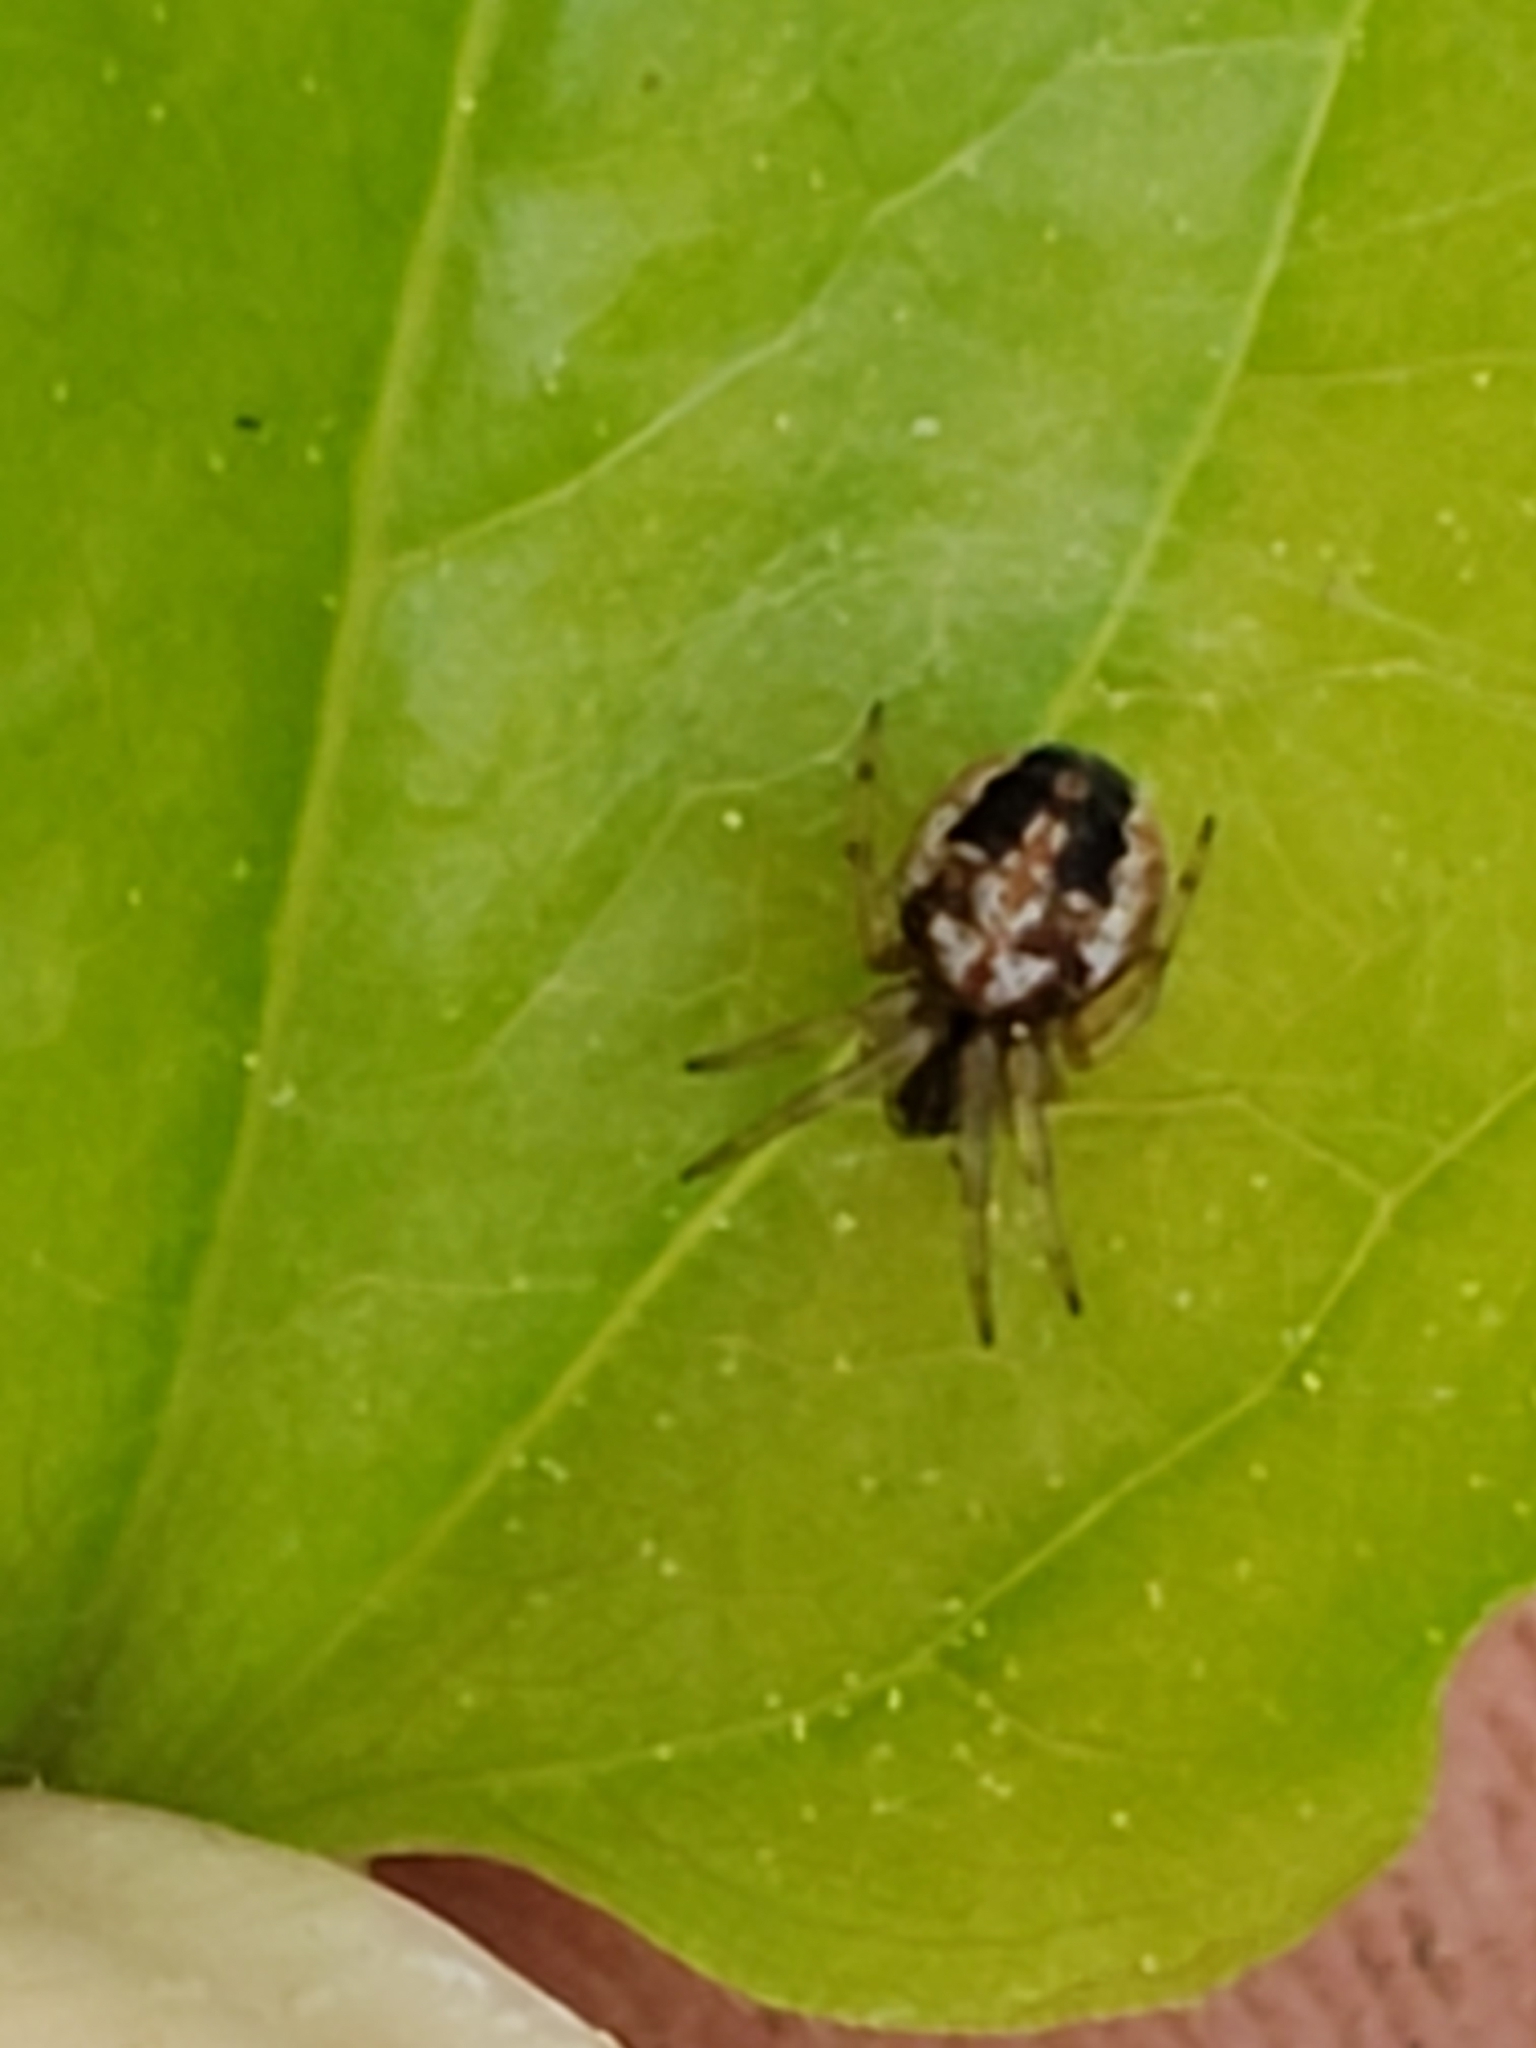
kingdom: Animalia
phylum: Arthropoda
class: Arachnida
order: Araneae
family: Araneidae
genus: Neoscona
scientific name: Neoscona arabesca
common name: Orb weavers
